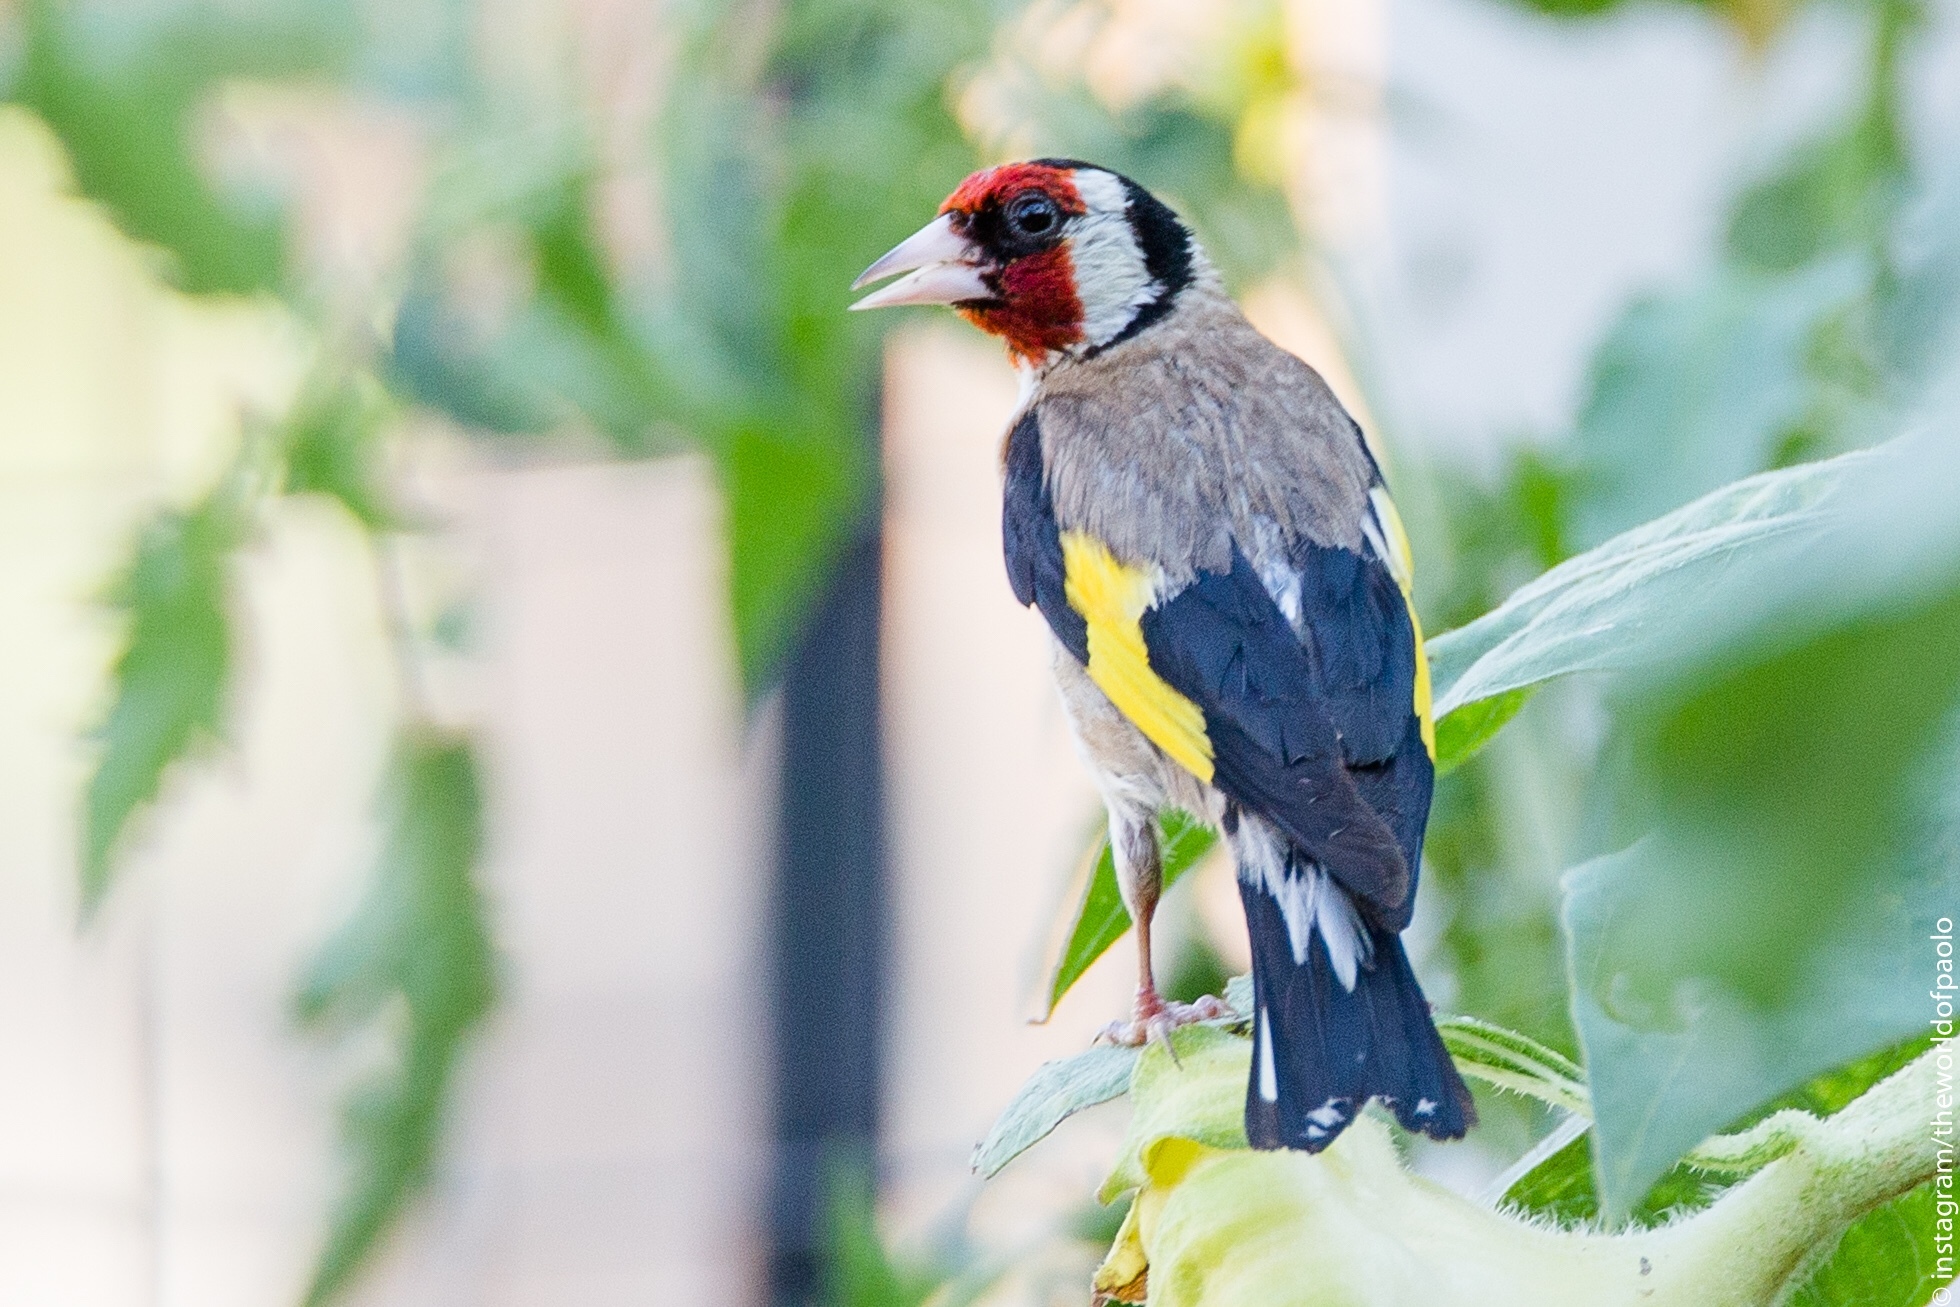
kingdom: Animalia
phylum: Chordata
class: Aves
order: Passeriformes
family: Fringillidae
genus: Carduelis
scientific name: Carduelis carduelis
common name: European goldfinch
